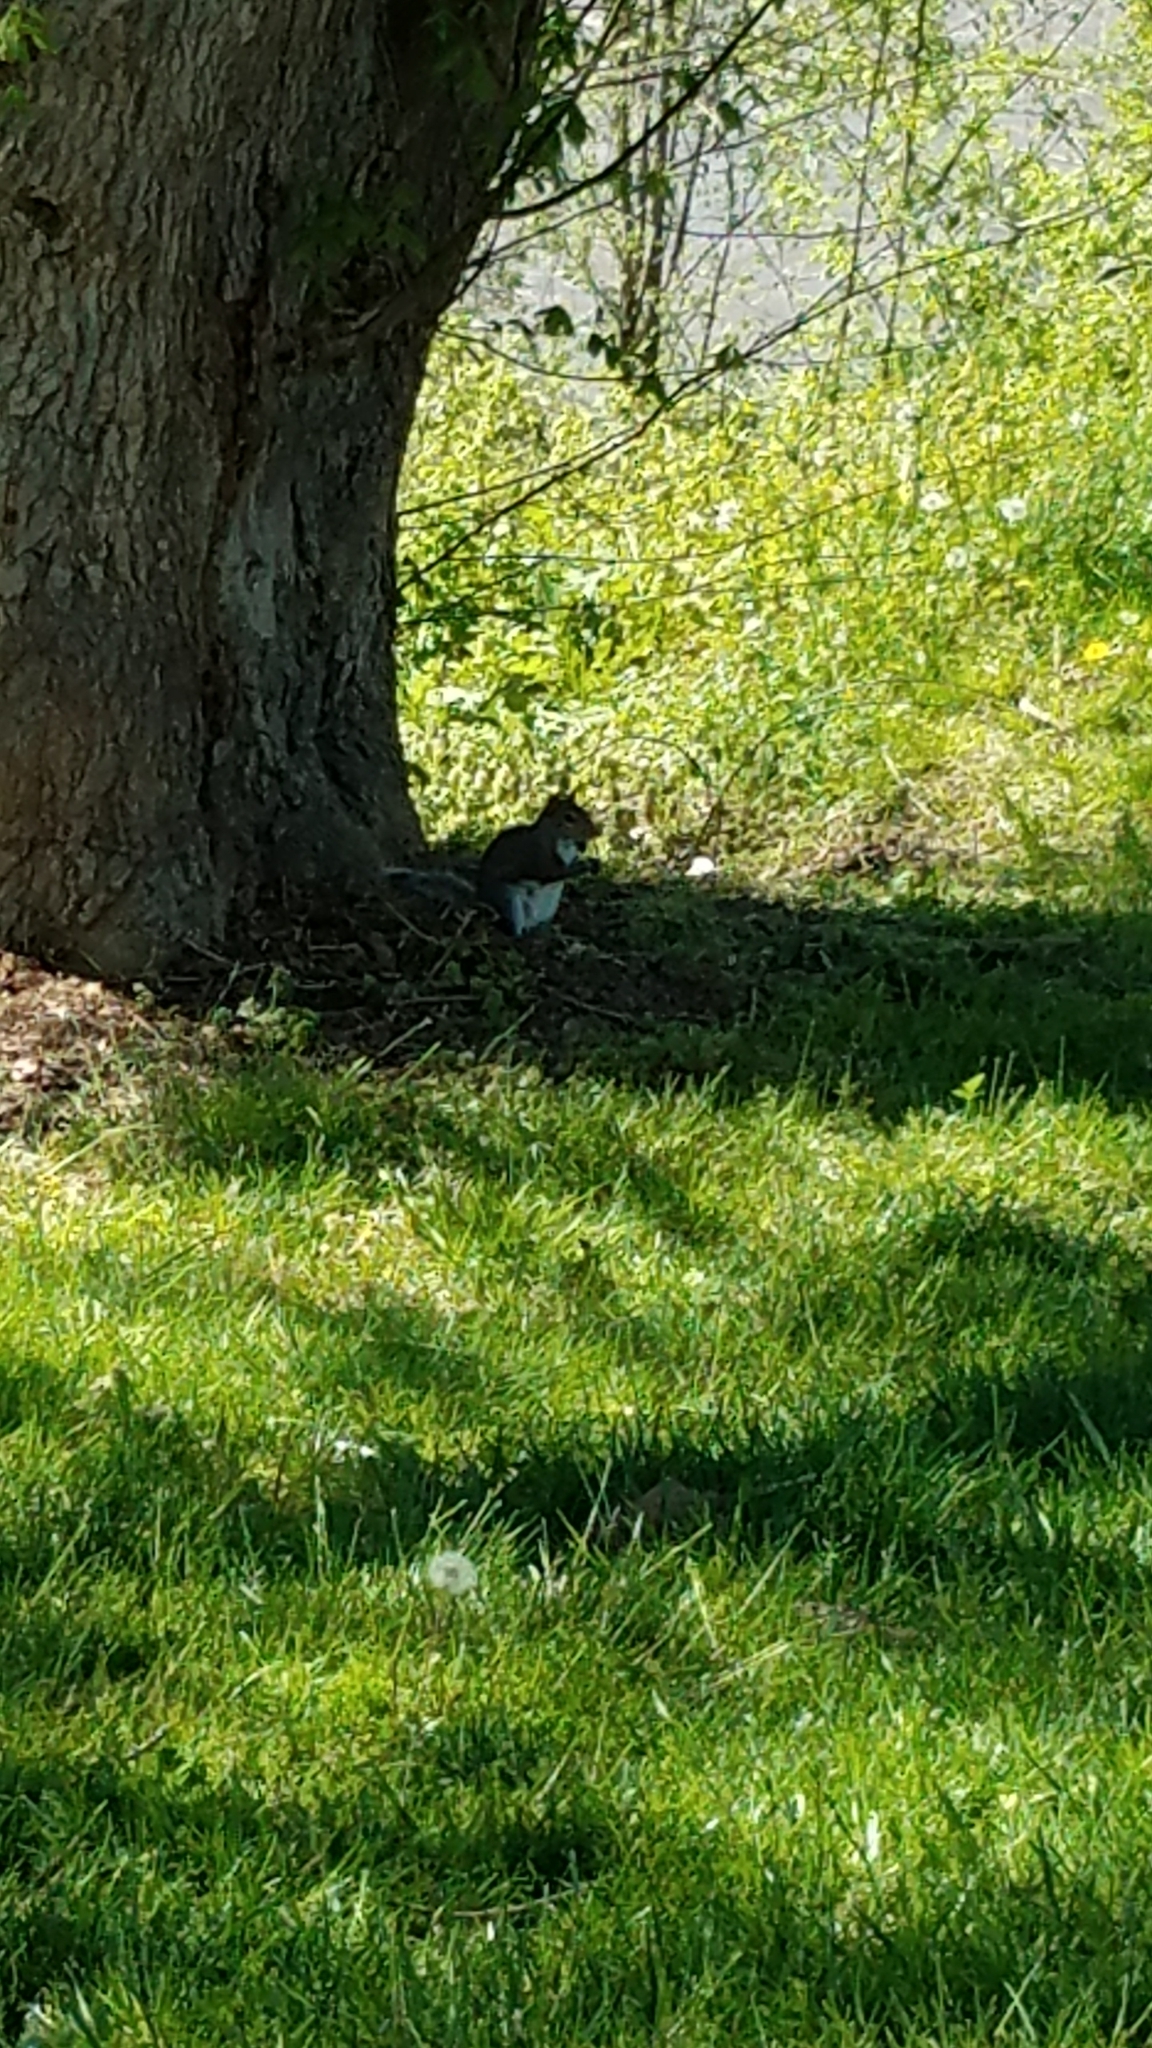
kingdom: Animalia
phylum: Chordata
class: Mammalia
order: Rodentia
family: Sciuridae
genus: Sciurus
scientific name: Sciurus carolinensis
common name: Eastern gray squirrel
